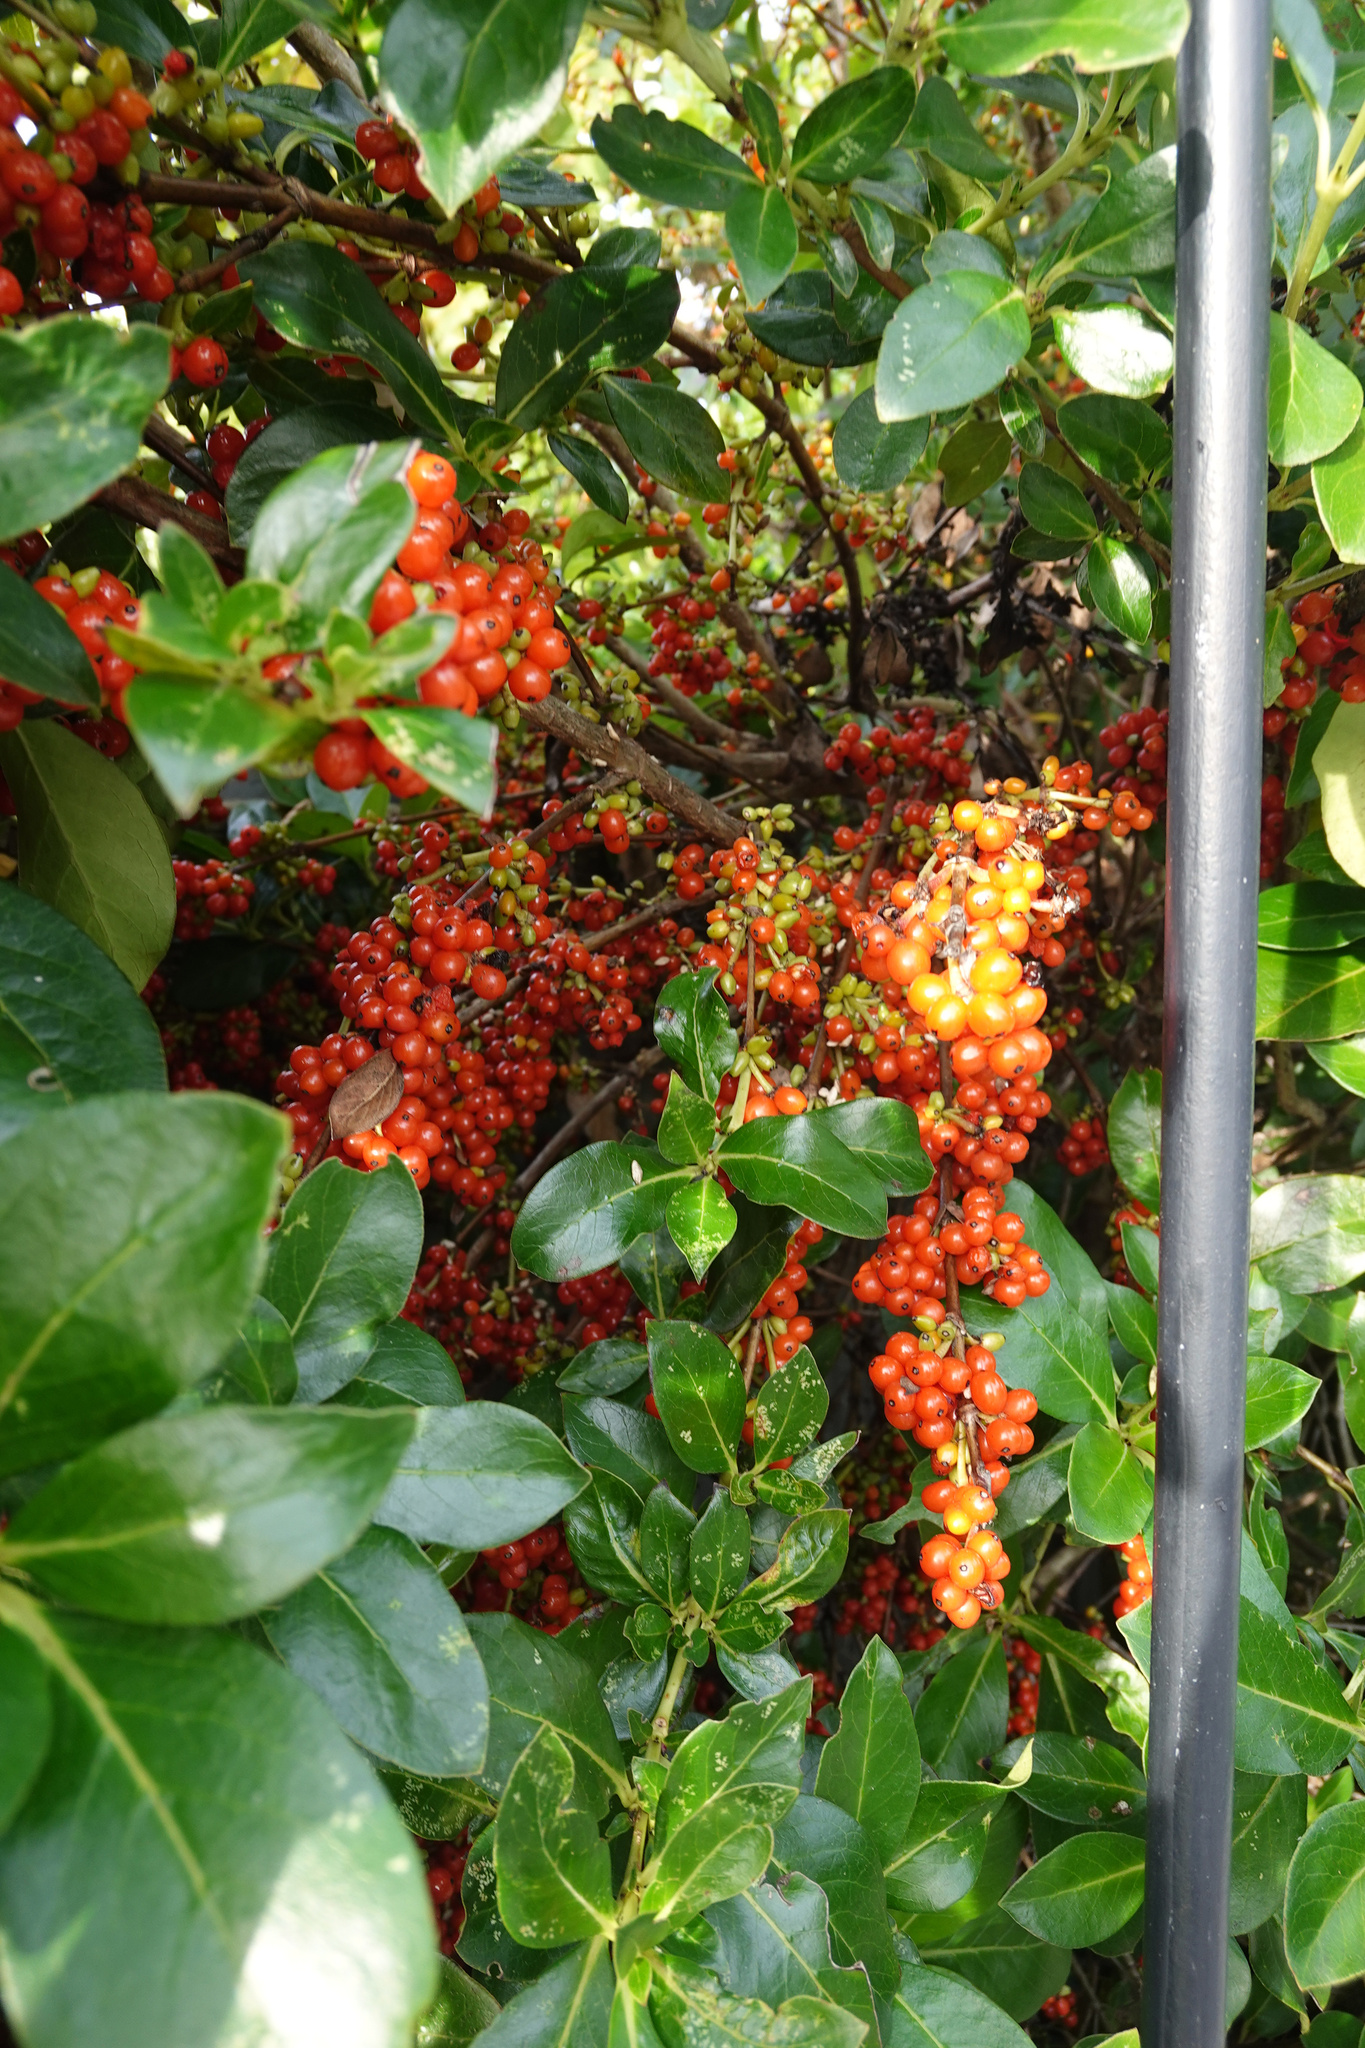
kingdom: Plantae
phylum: Tracheophyta
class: Magnoliopsida
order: Gentianales
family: Rubiaceae
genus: Coprosma
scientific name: Coprosma robusta
